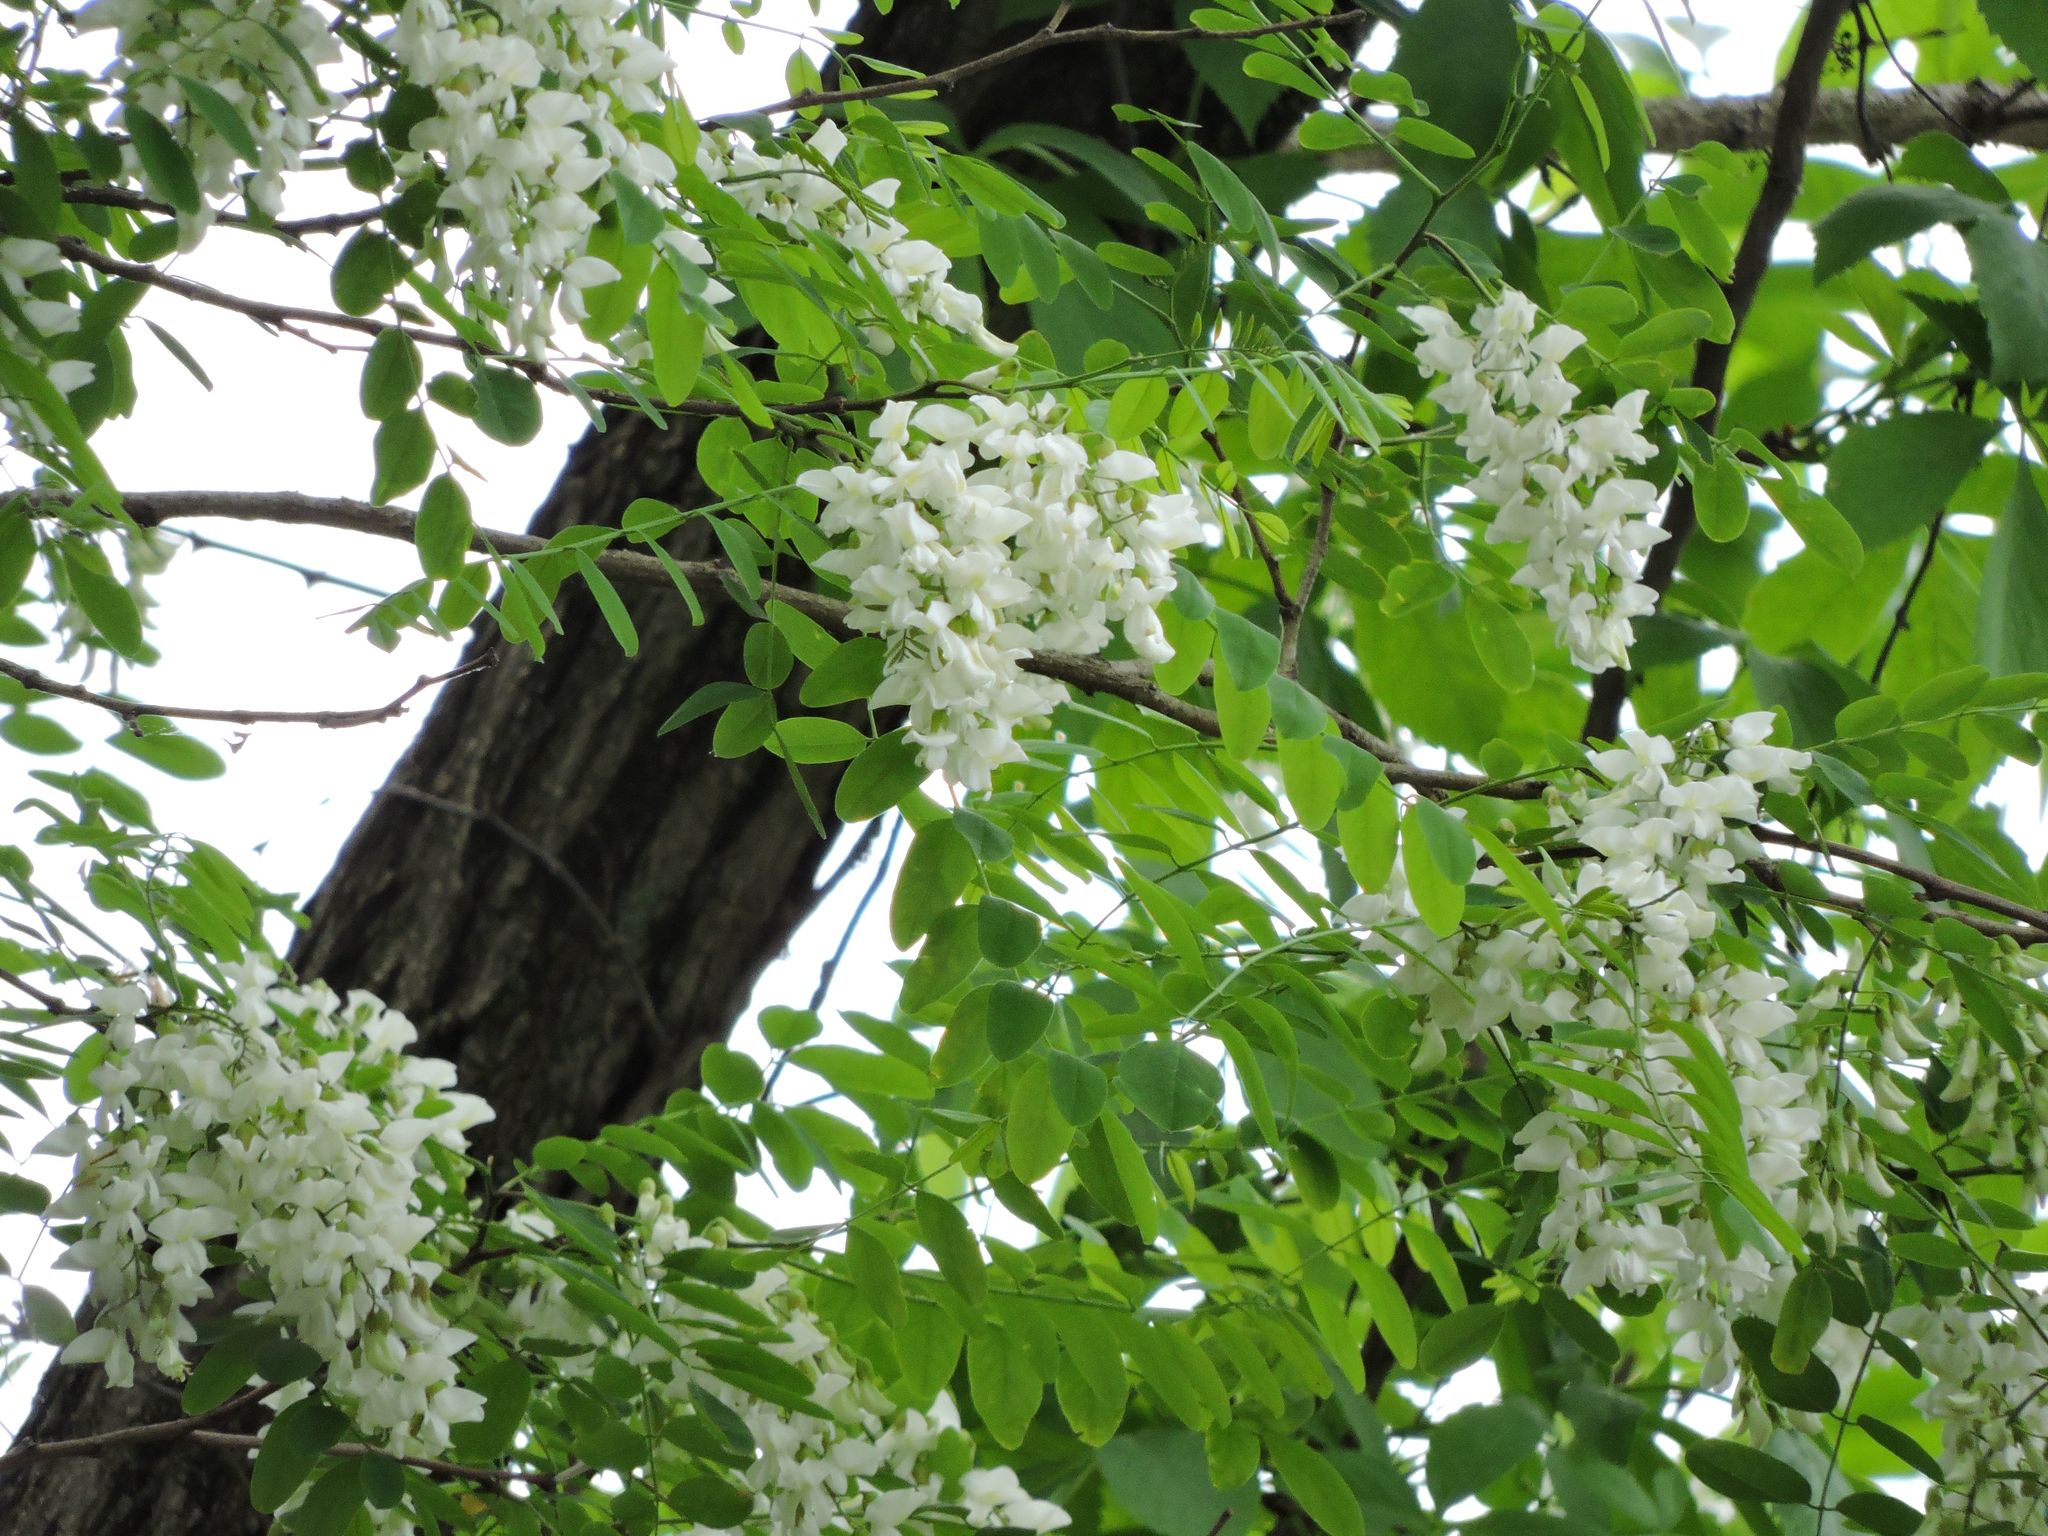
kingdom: Plantae
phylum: Tracheophyta
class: Magnoliopsida
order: Fabales
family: Fabaceae
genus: Robinia
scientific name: Robinia pseudoacacia
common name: Black locust
